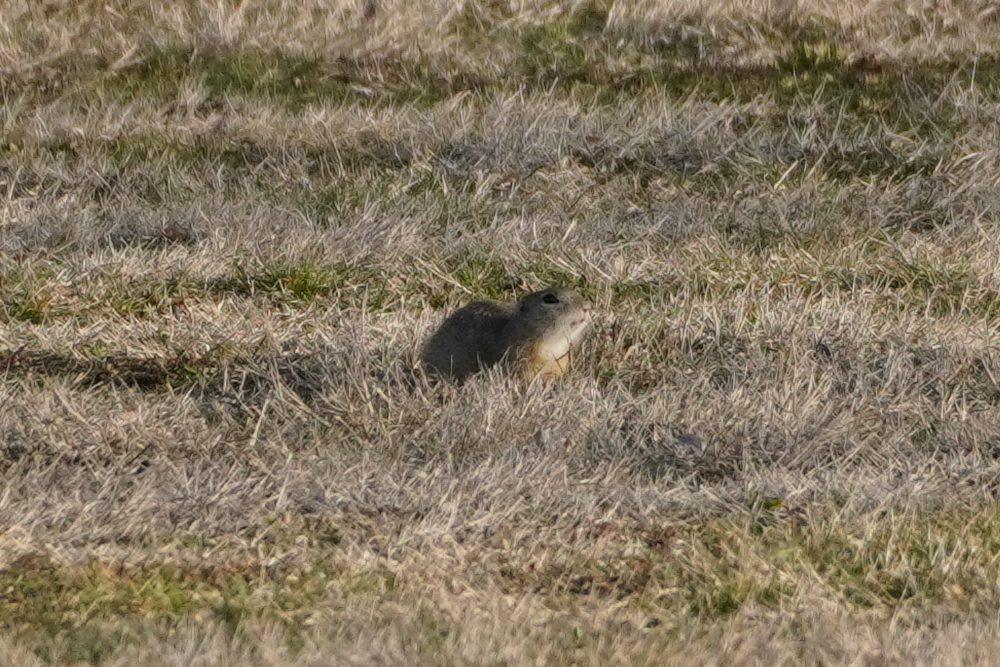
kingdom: Animalia
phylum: Chordata
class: Mammalia
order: Rodentia
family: Sciuridae
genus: Spermophilus
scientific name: Spermophilus citellus
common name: European ground squirrel
